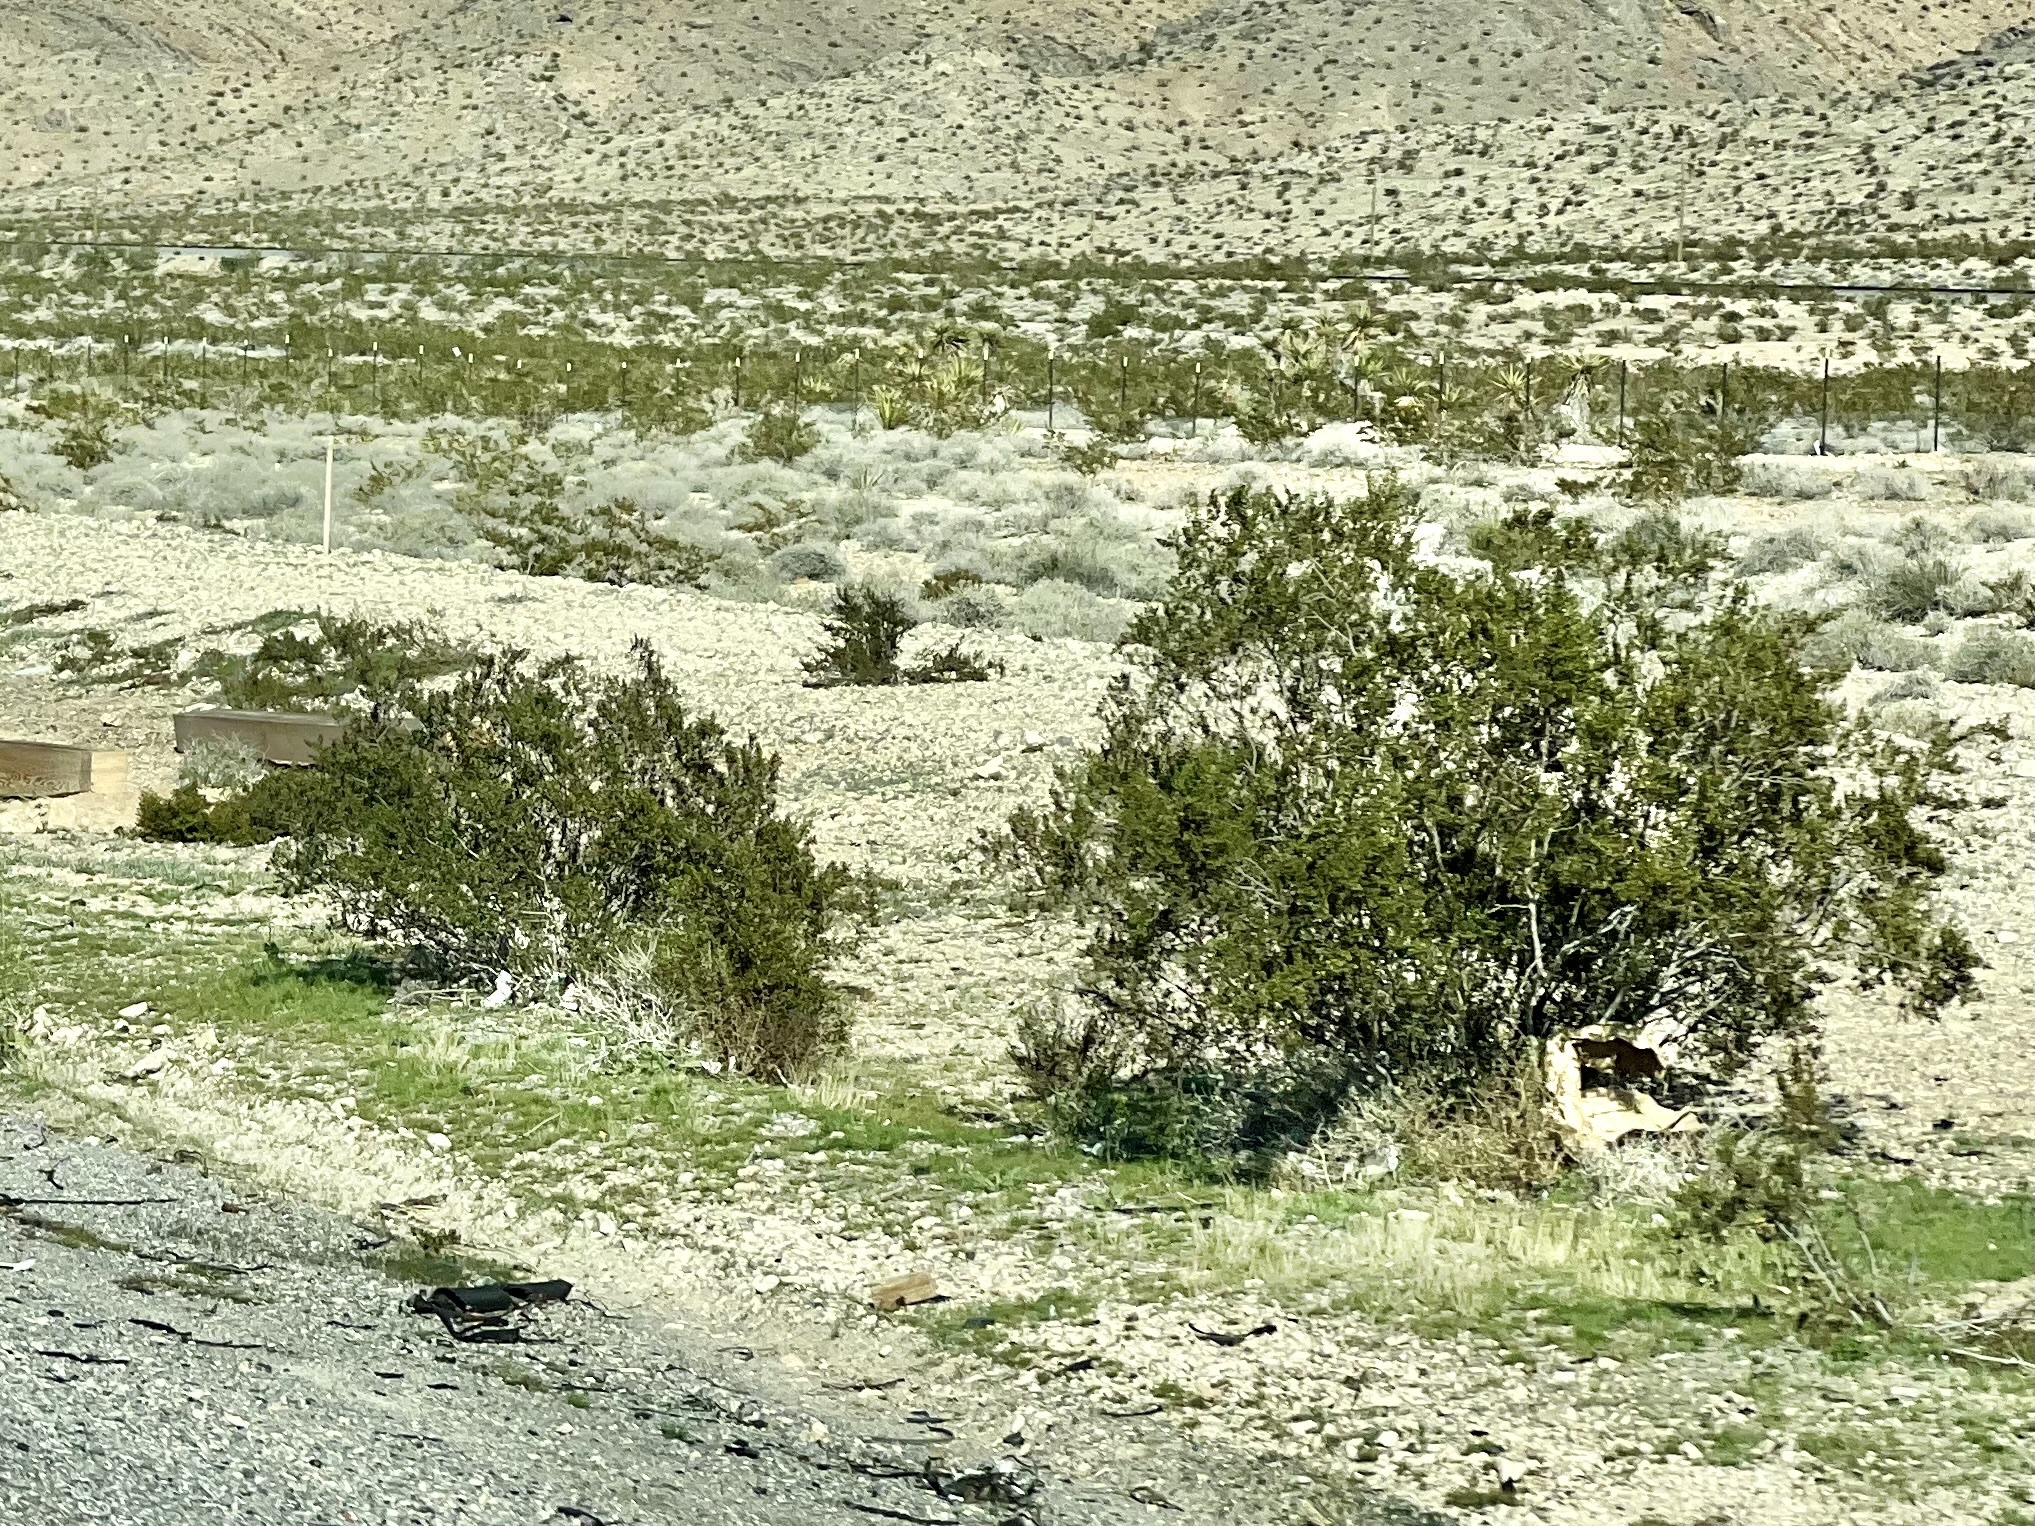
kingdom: Plantae
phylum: Tracheophyta
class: Magnoliopsida
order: Zygophyllales
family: Zygophyllaceae
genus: Larrea
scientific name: Larrea tridentata
